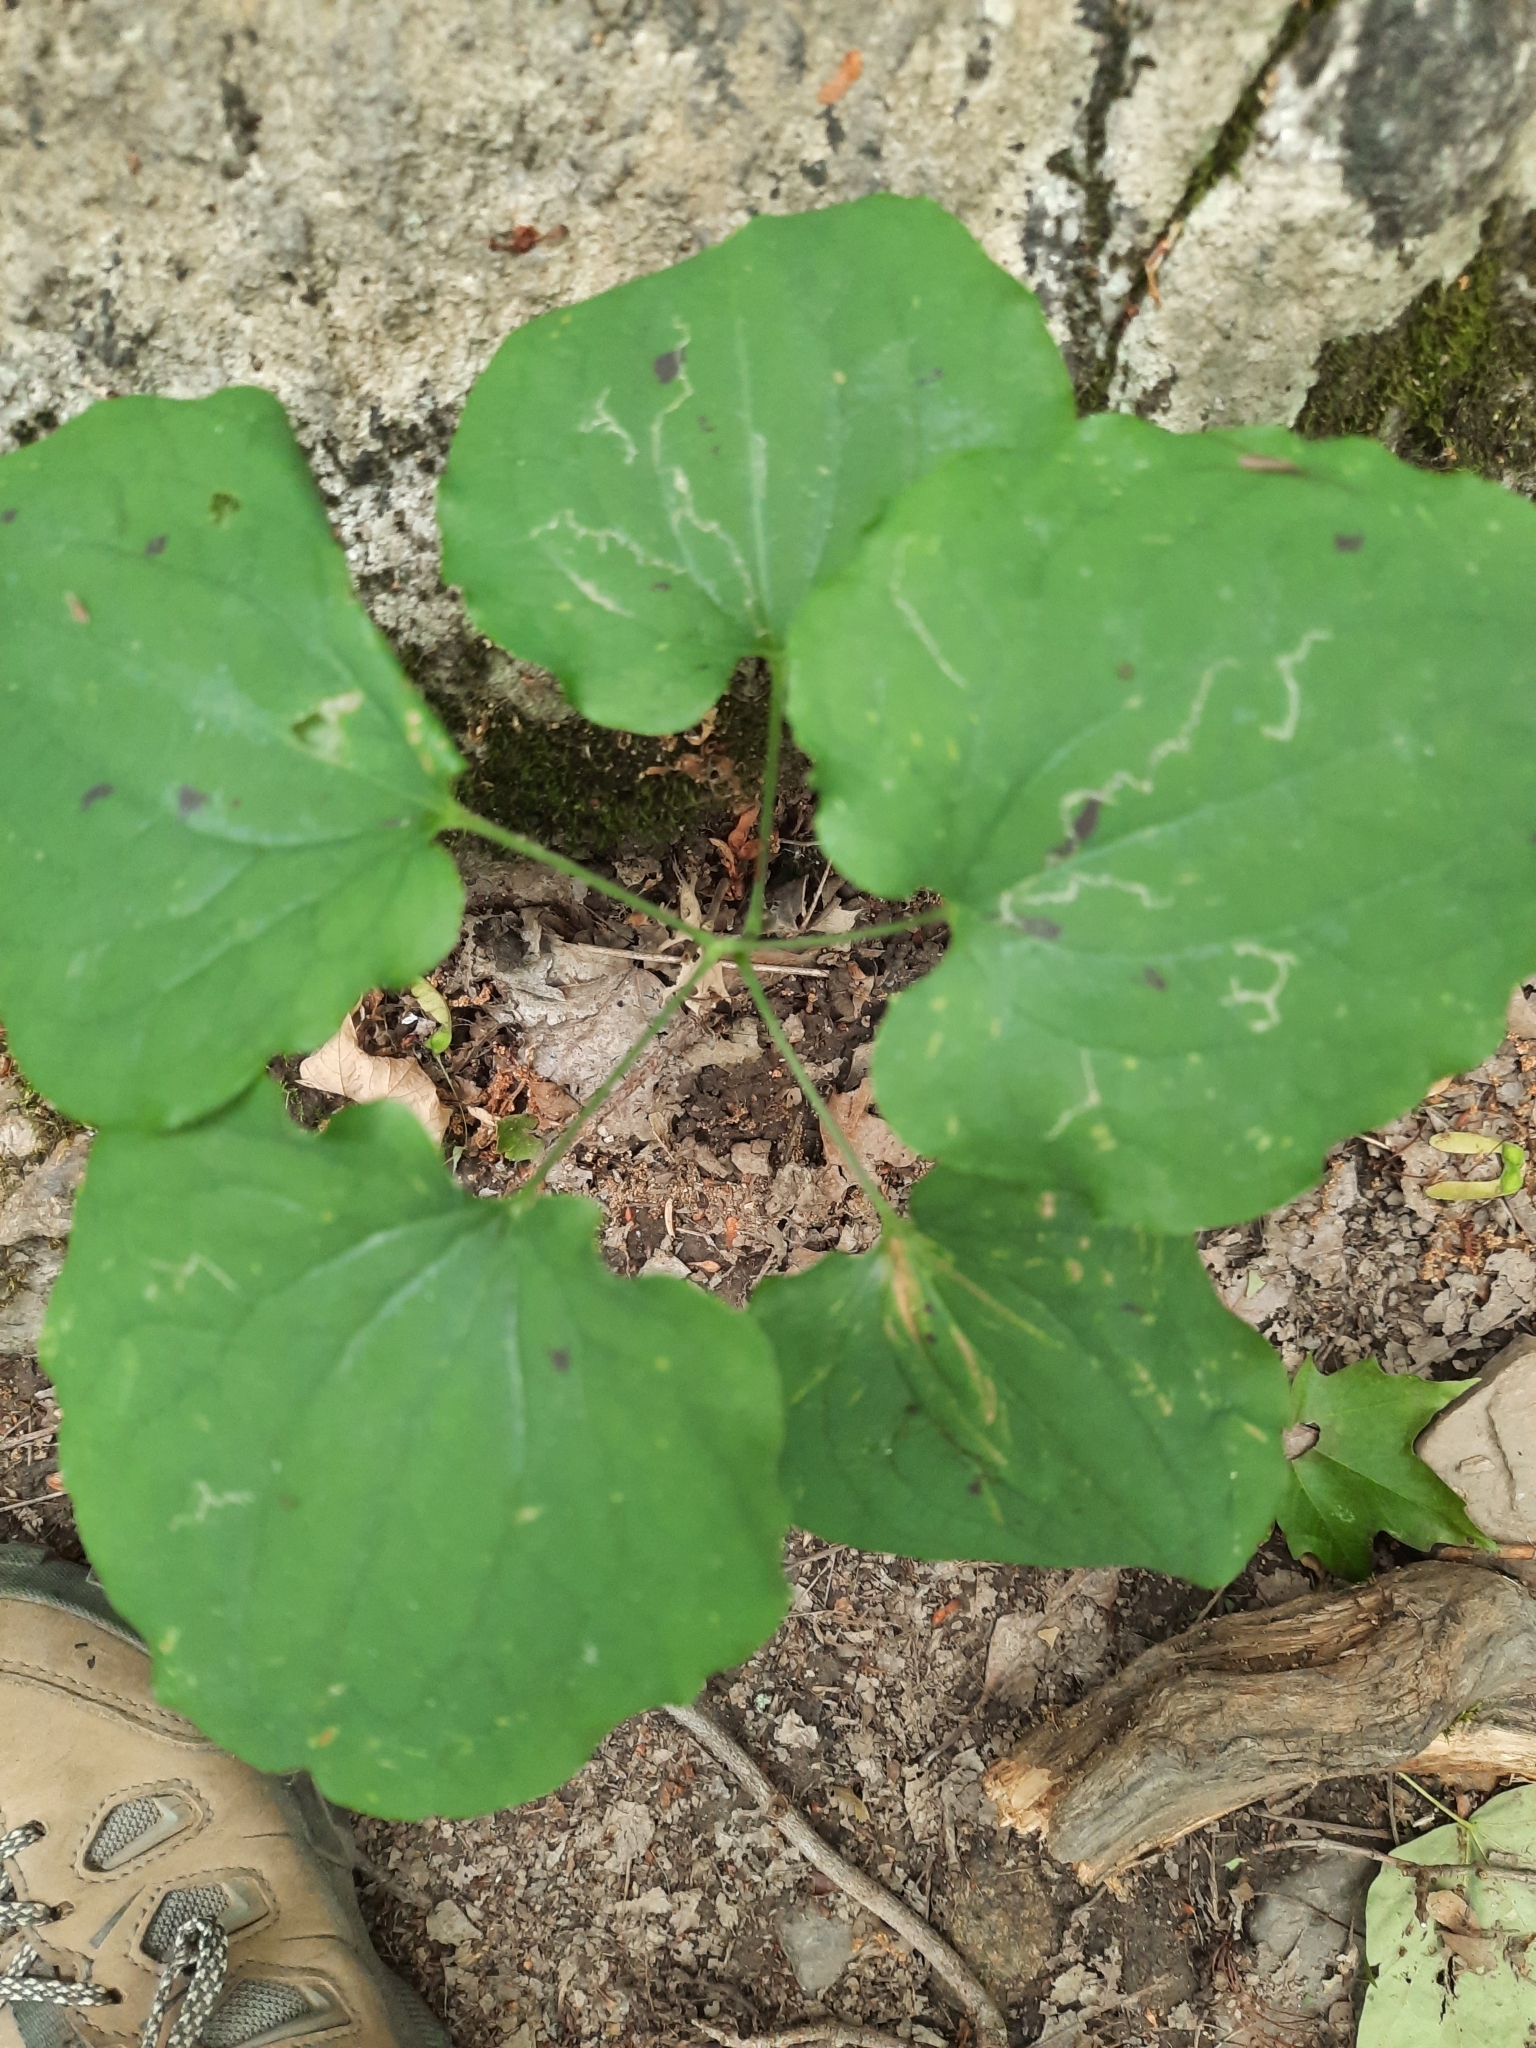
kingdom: Plantae
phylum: Tracheophyta
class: Liliopsida
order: Liliales
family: Smilacaceae
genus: Smilax
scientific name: Smilax herbacea
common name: Jacob's-ladder
